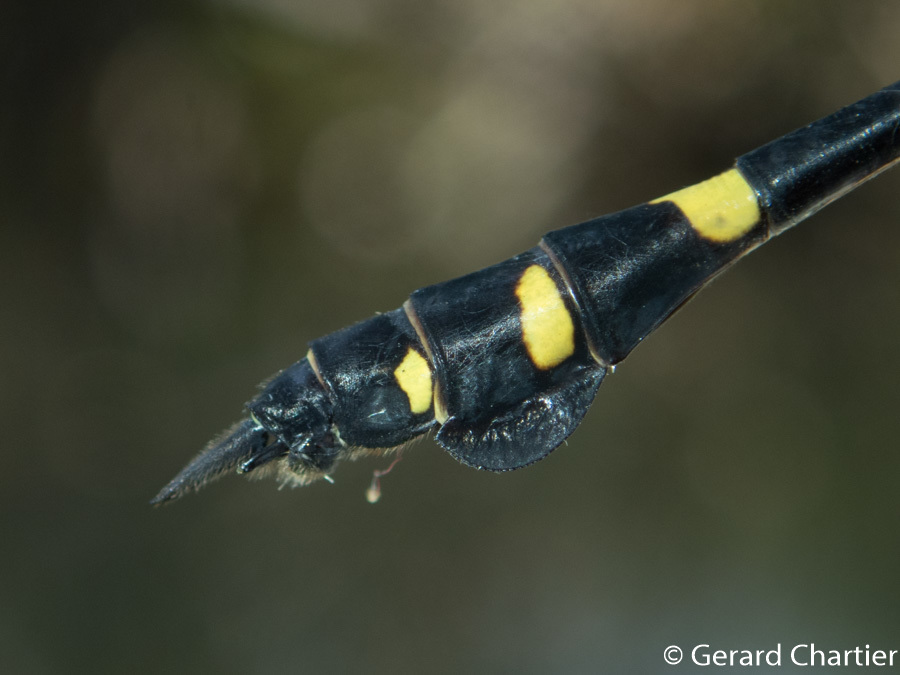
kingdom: Animalia
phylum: Arthropoda
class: Insecta
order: Odonata
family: Gomphidae
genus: Ictinogomphus
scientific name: Ictinogomphus decoratus
